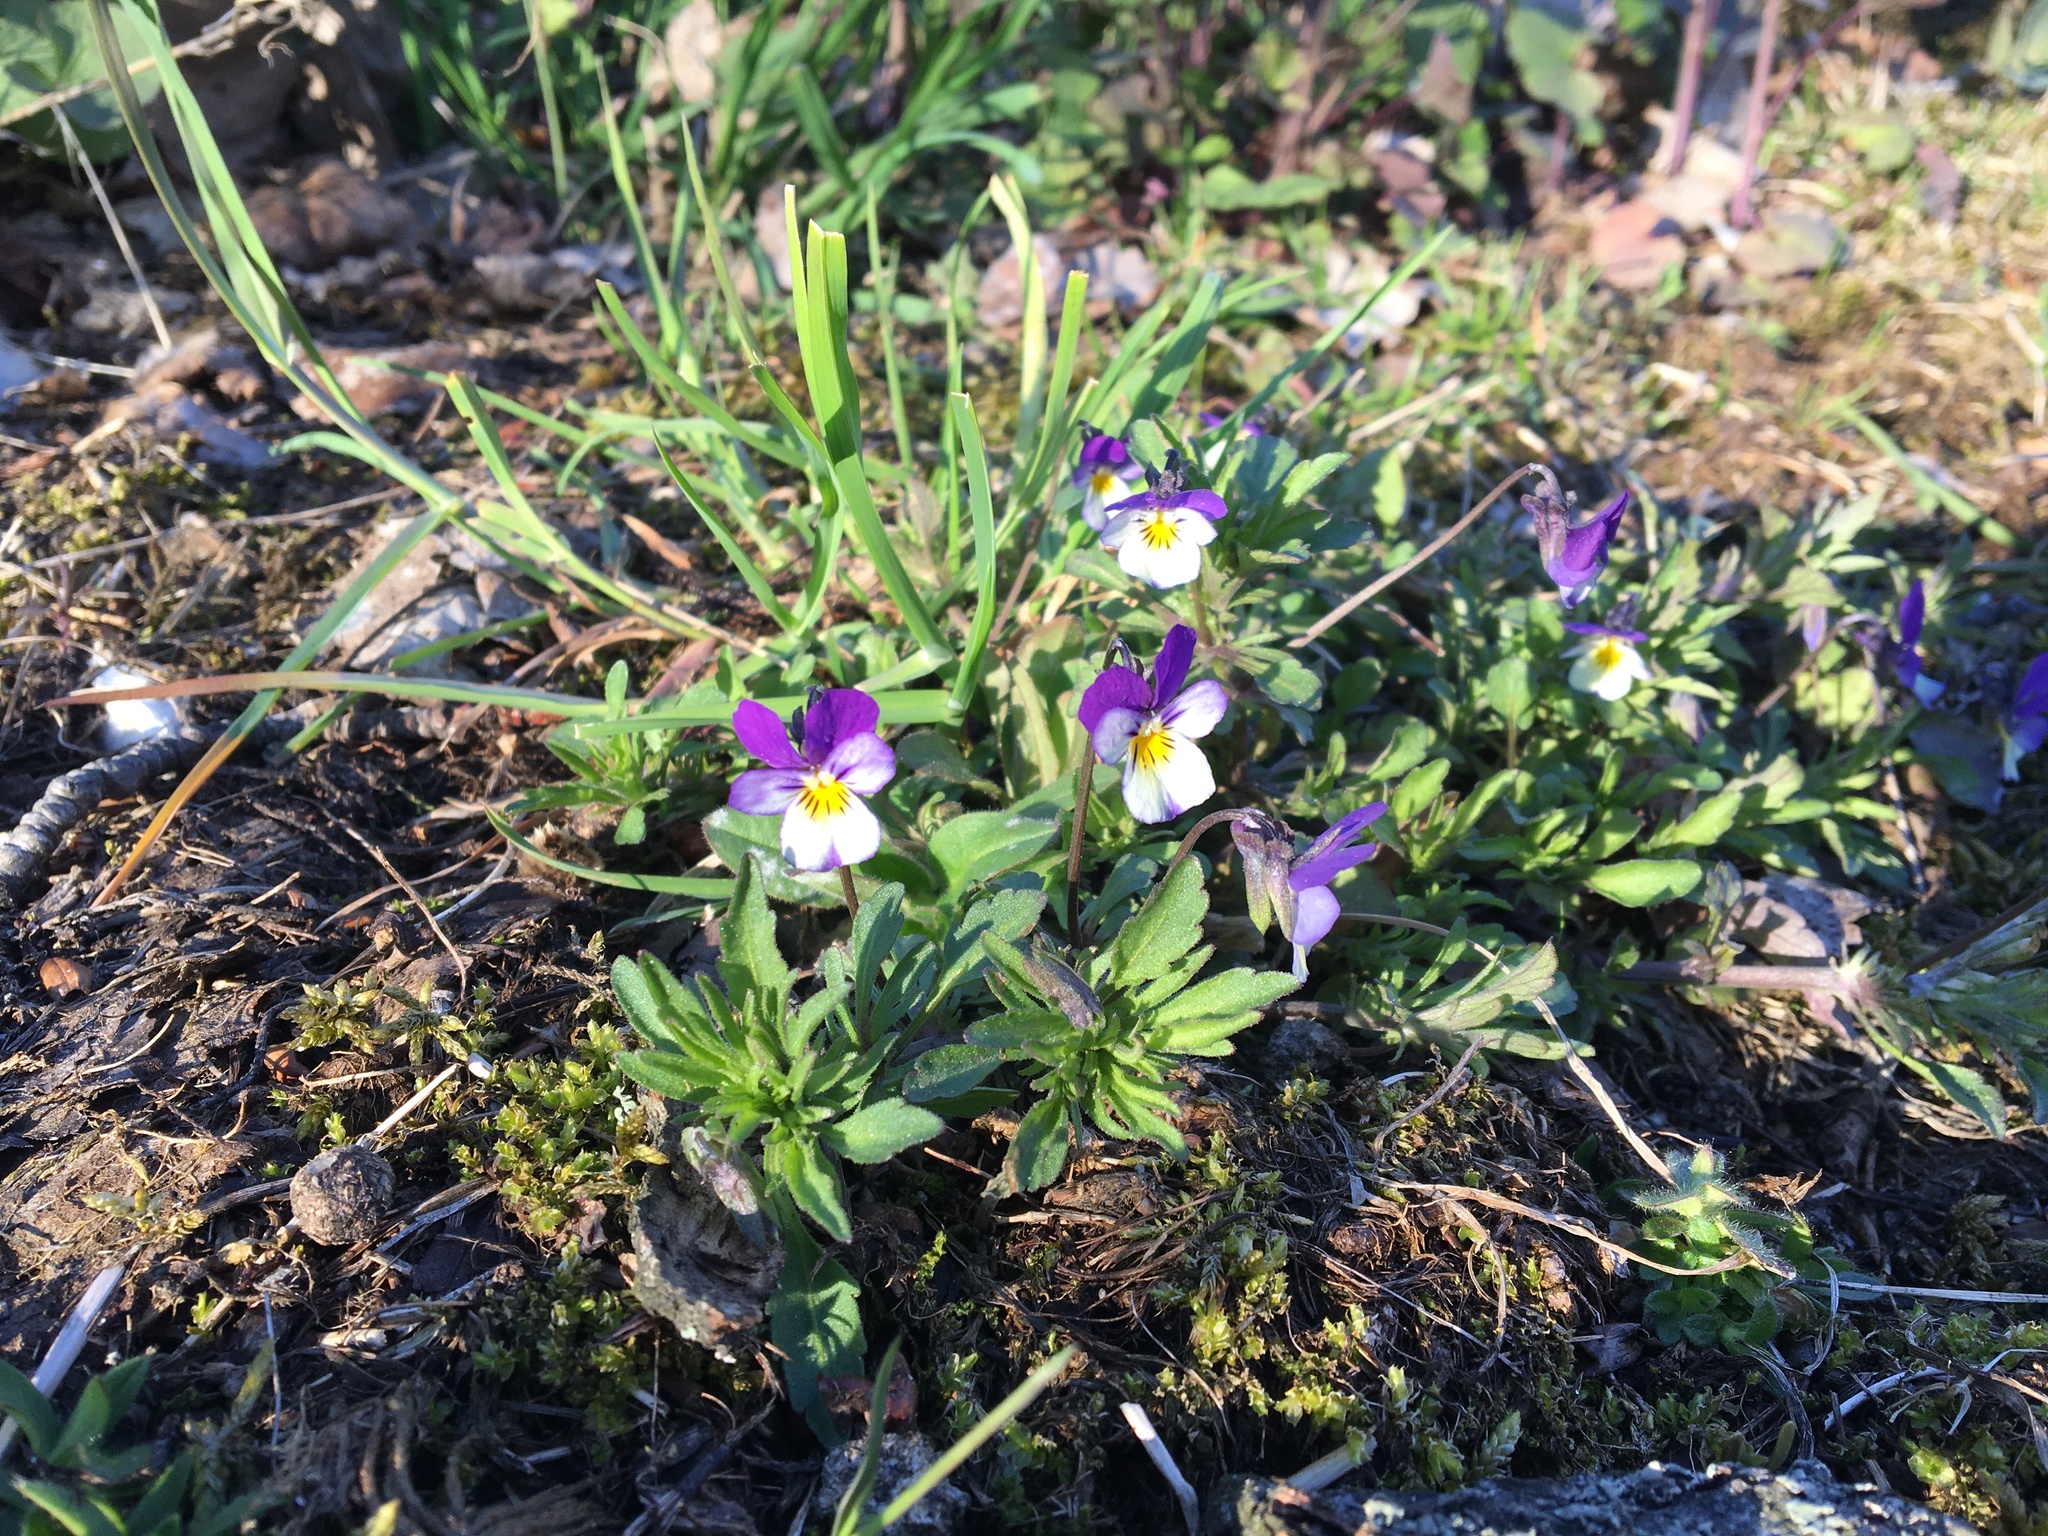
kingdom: Plantae
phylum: Tracheophyta
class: Magnoliopsida
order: Malpighiales
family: Violaceae
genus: Viola
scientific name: Viola tricolor
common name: Pansy
